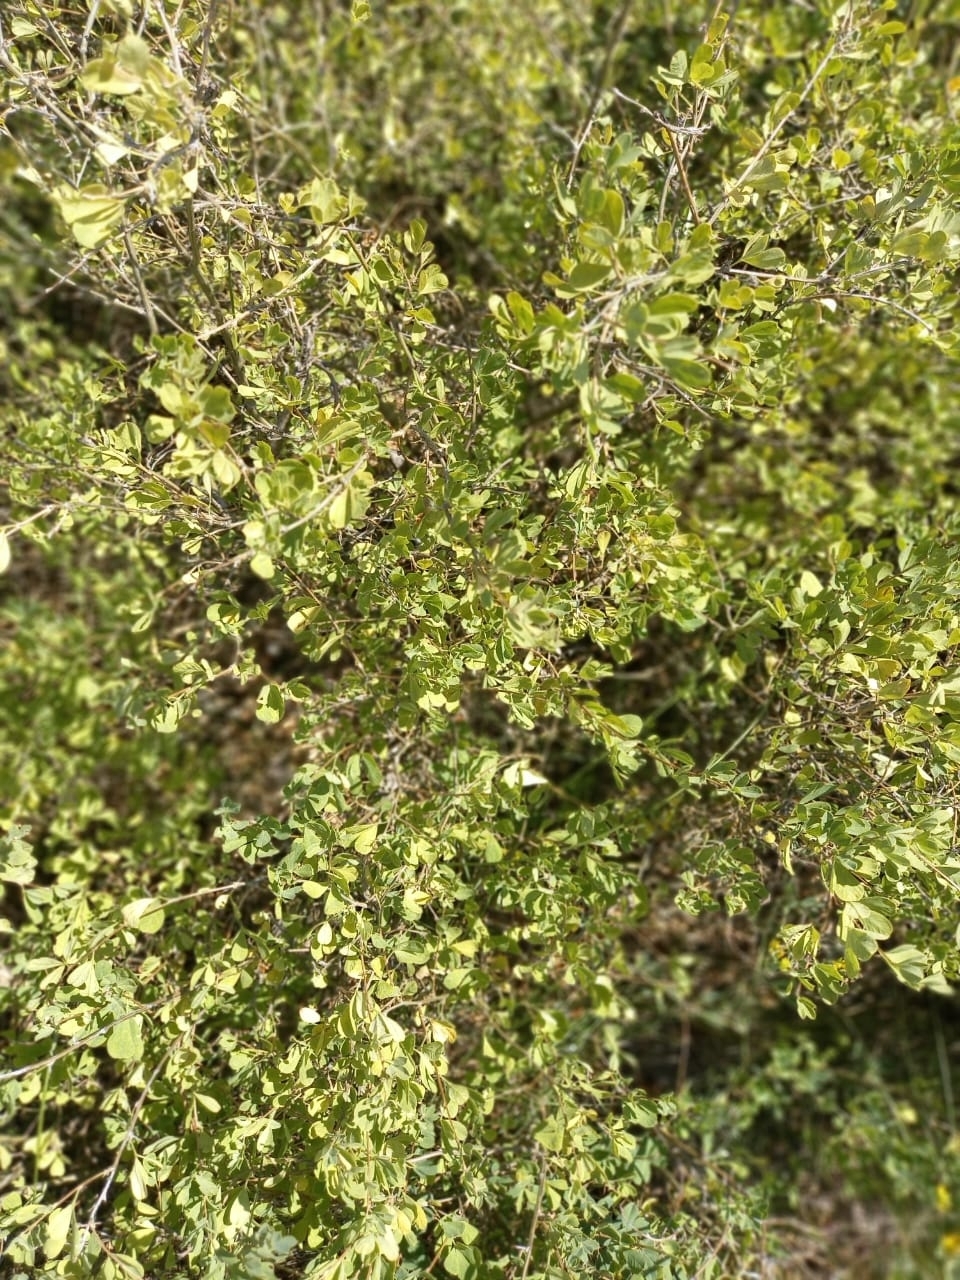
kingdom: Plantae
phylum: Tracheophyta
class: Magnoliopsida
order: Fabales
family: Fabaceae
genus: Caragana
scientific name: Caragana frutex
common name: Russian peashrub
